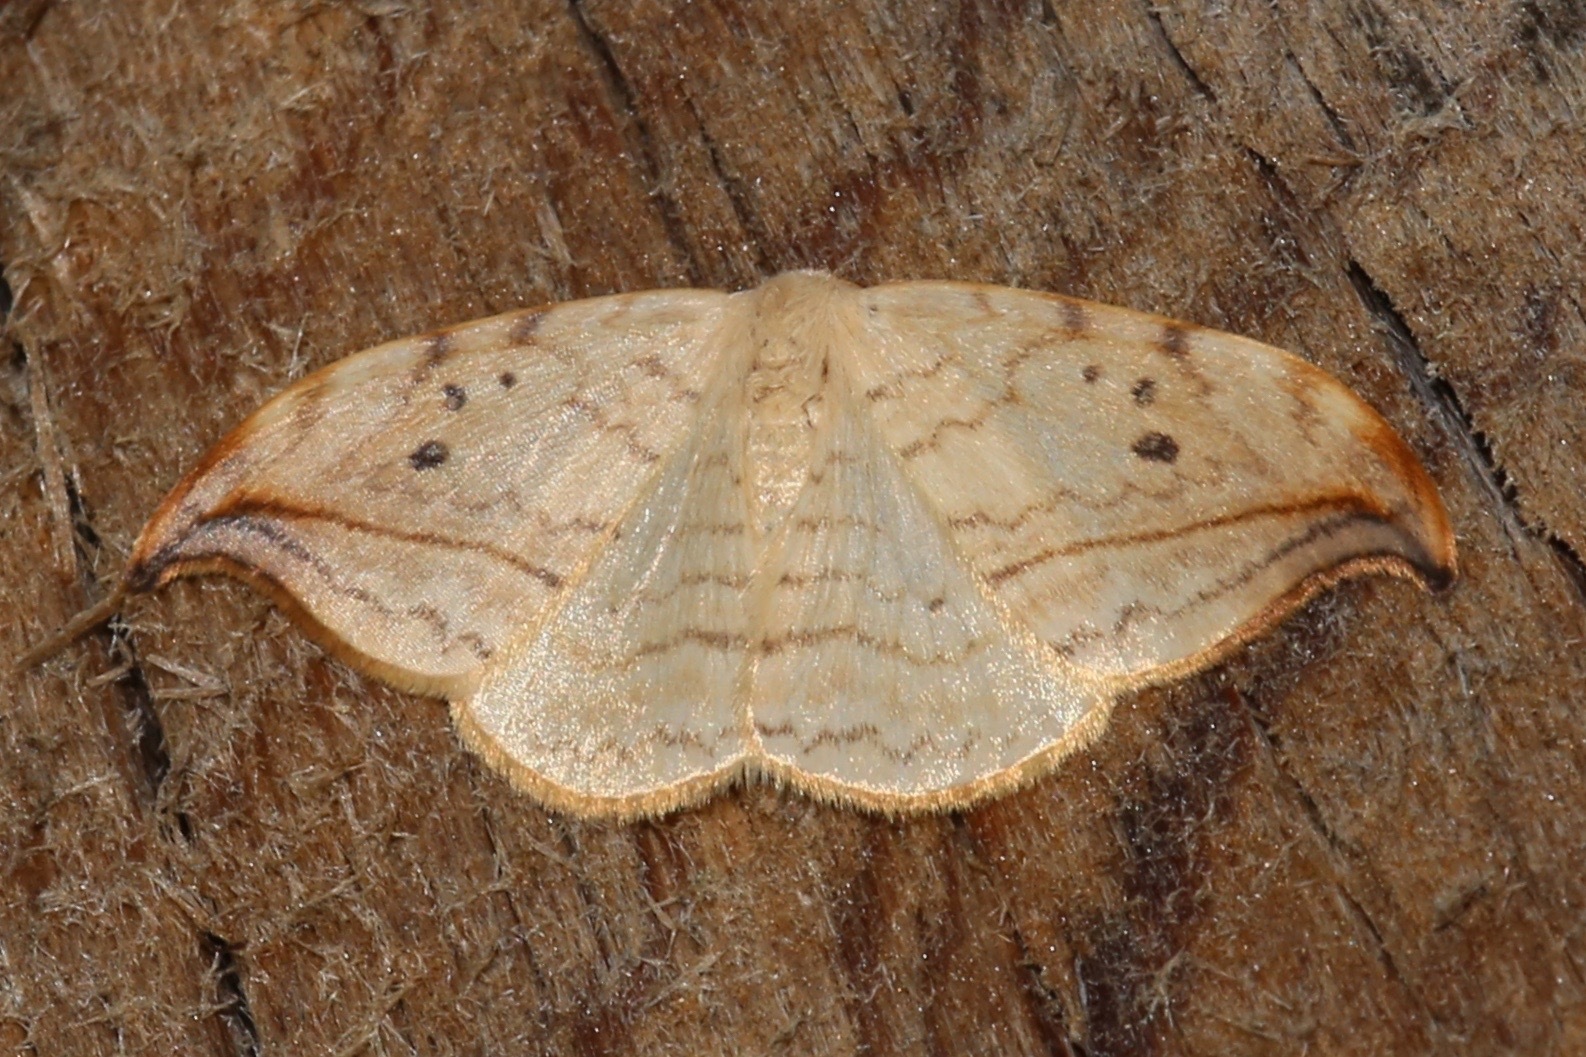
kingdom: Animalia
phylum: Arthropoda
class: Insecta
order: Lepidoptera
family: Drepanidae
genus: Drepana
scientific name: Drepana arcuata
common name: Arched hooktip moth
